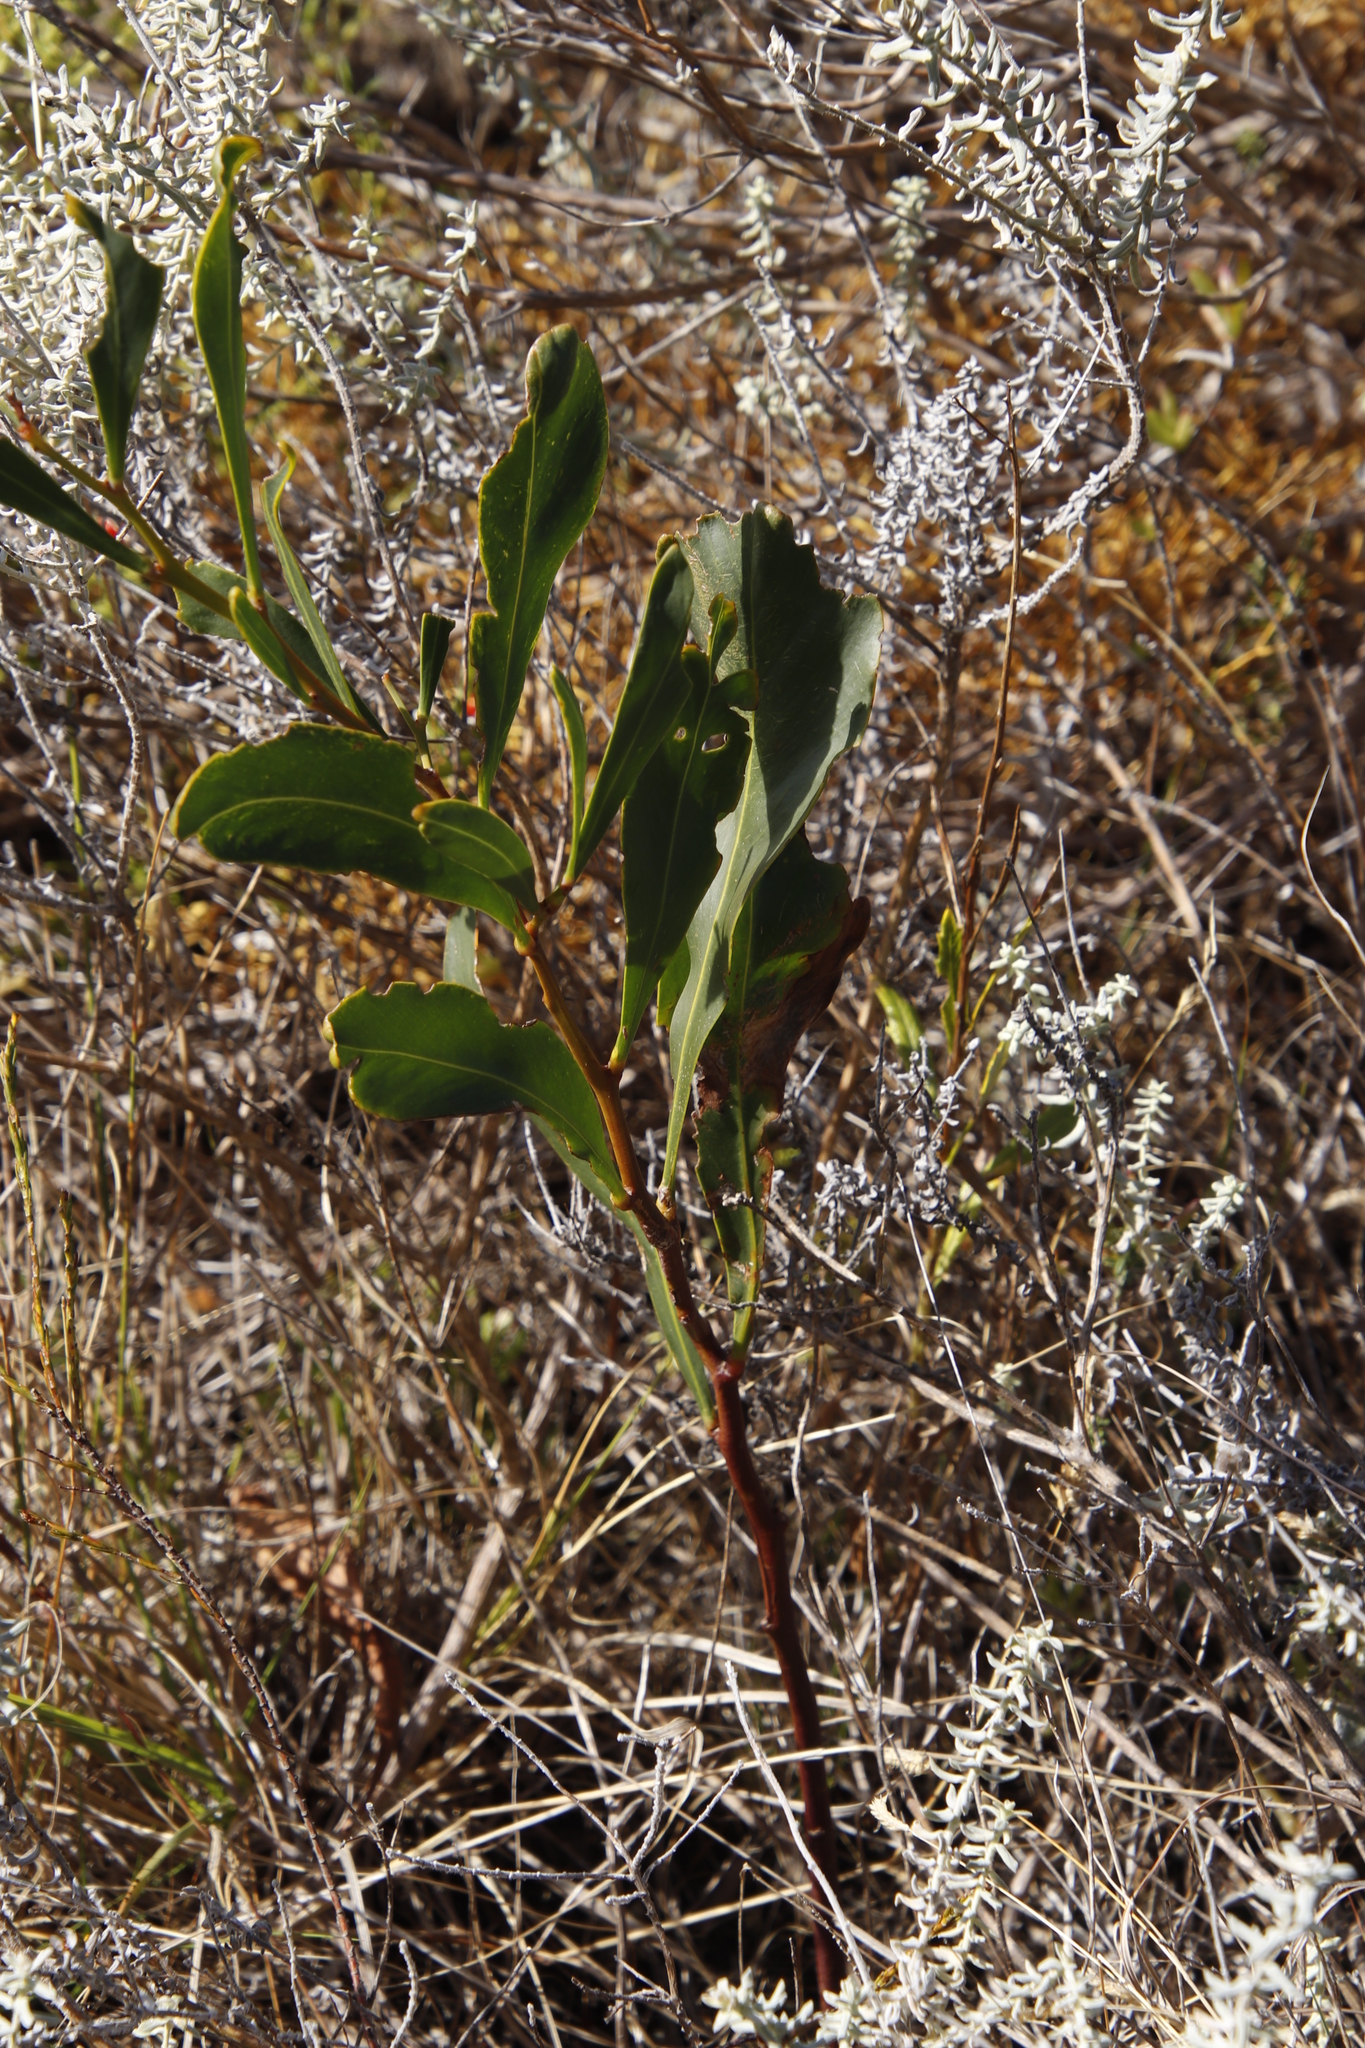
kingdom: Plantae
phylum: Tracheophyta
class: Magnoliopsida
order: Fabales
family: Fabaceae
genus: Acacia
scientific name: Acacia saligna
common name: Orange wattle
